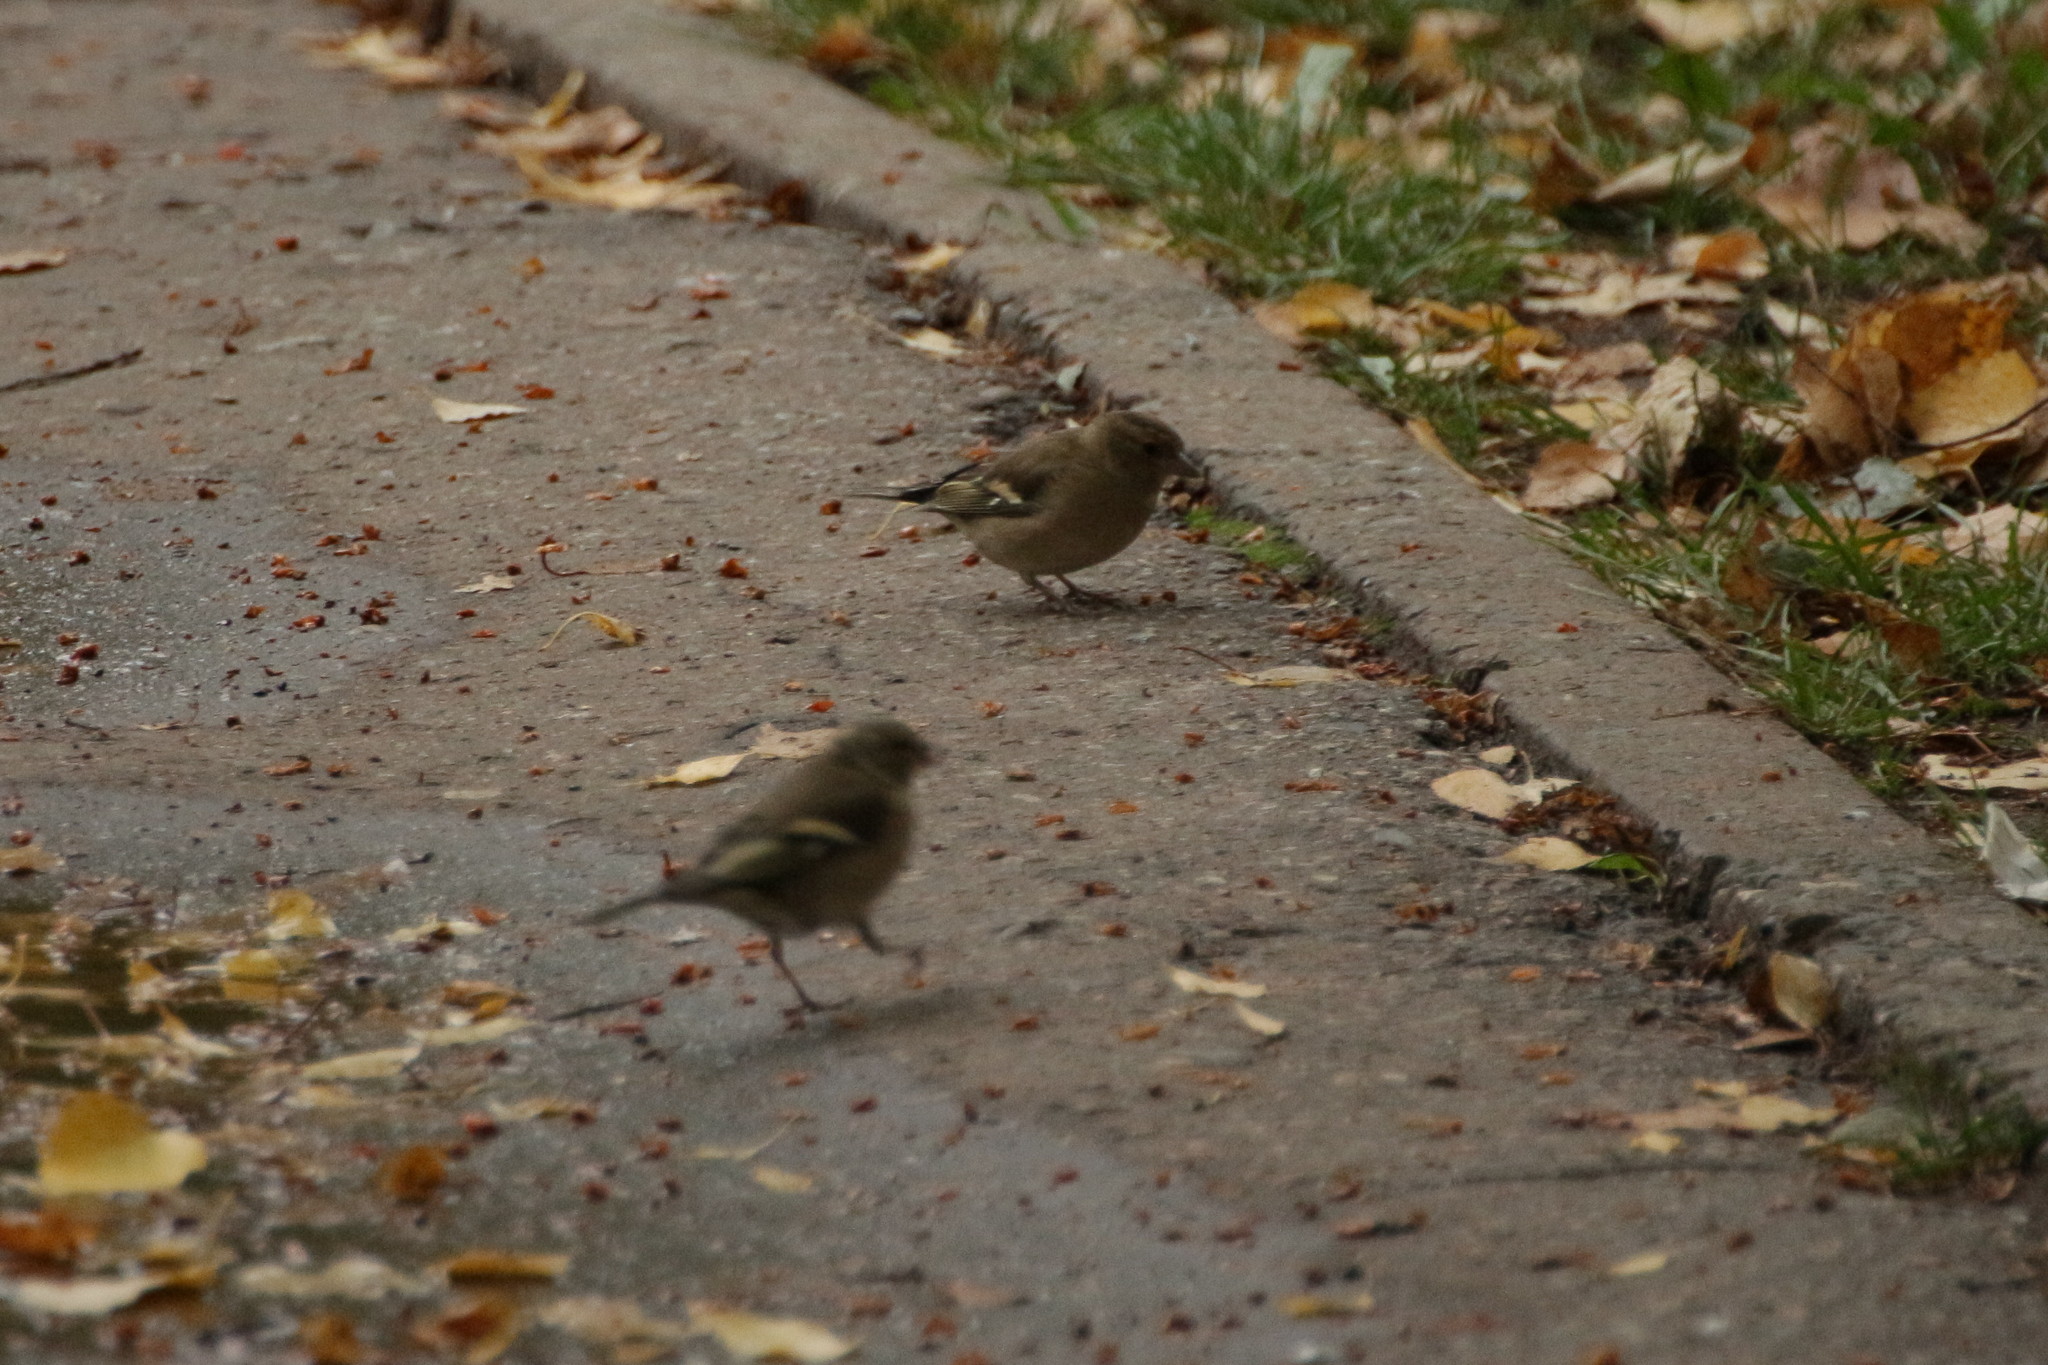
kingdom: Animalia
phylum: Chordata
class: Aves
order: Passeriformes
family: Fringillidae
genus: Fringilla
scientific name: Fringilla coelebs
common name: Common chaffinch
